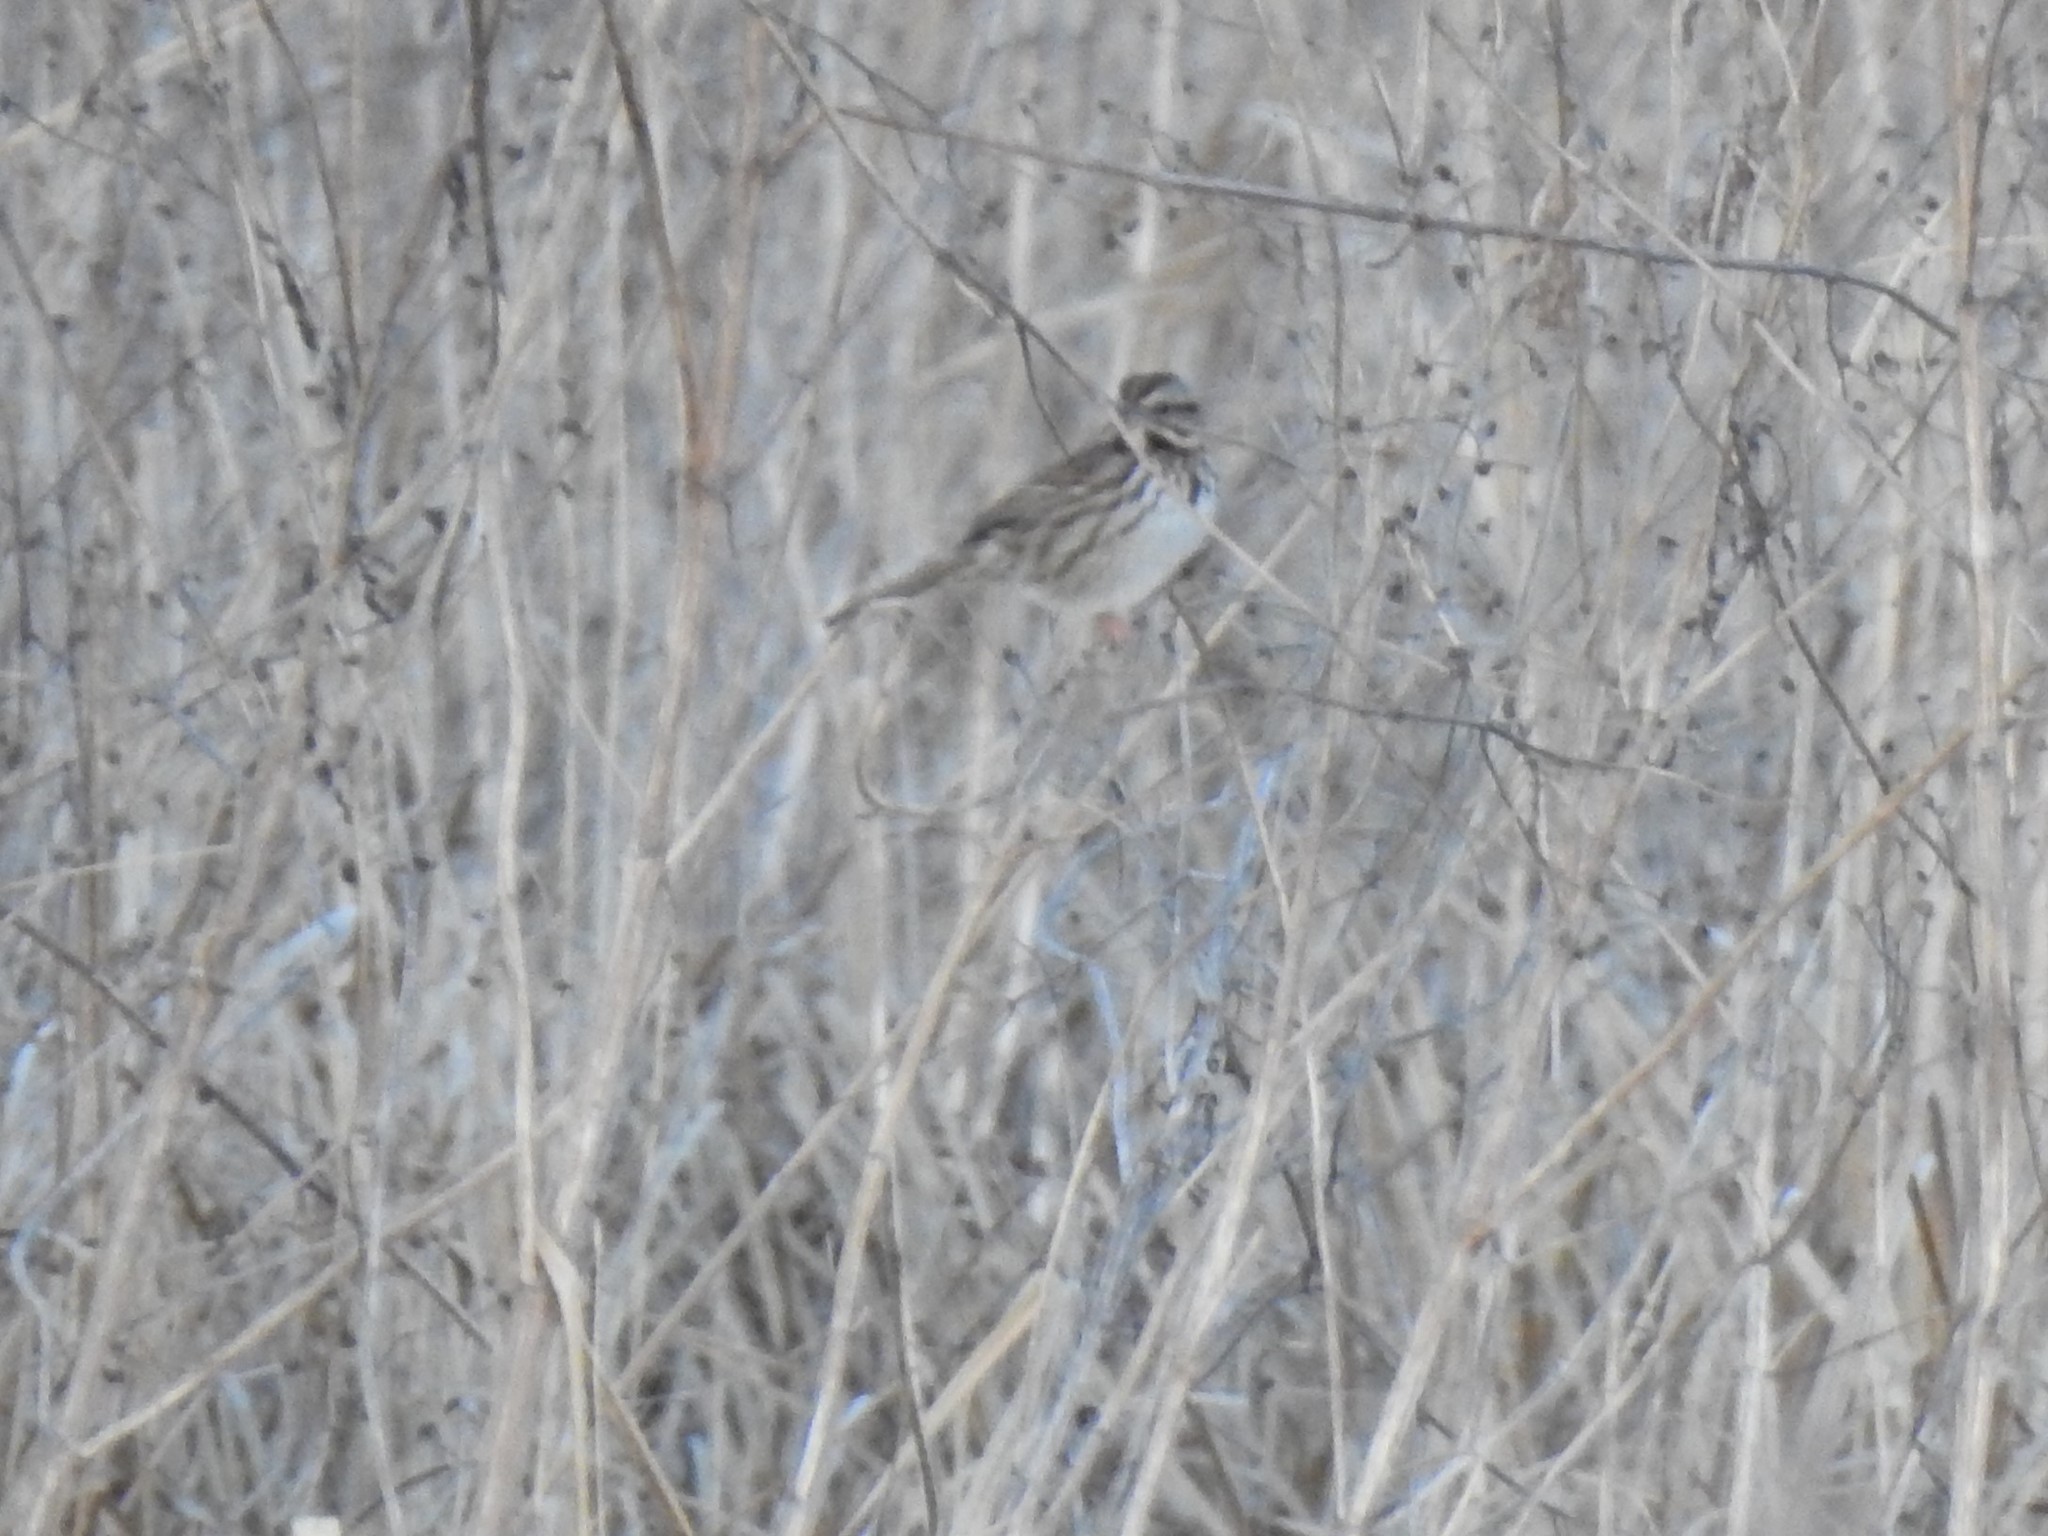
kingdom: Animalia
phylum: Chordata
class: Aves
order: Passeriformes
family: Passerellidae
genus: Melospiza
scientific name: Melospiza melodia
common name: Song sparrow
